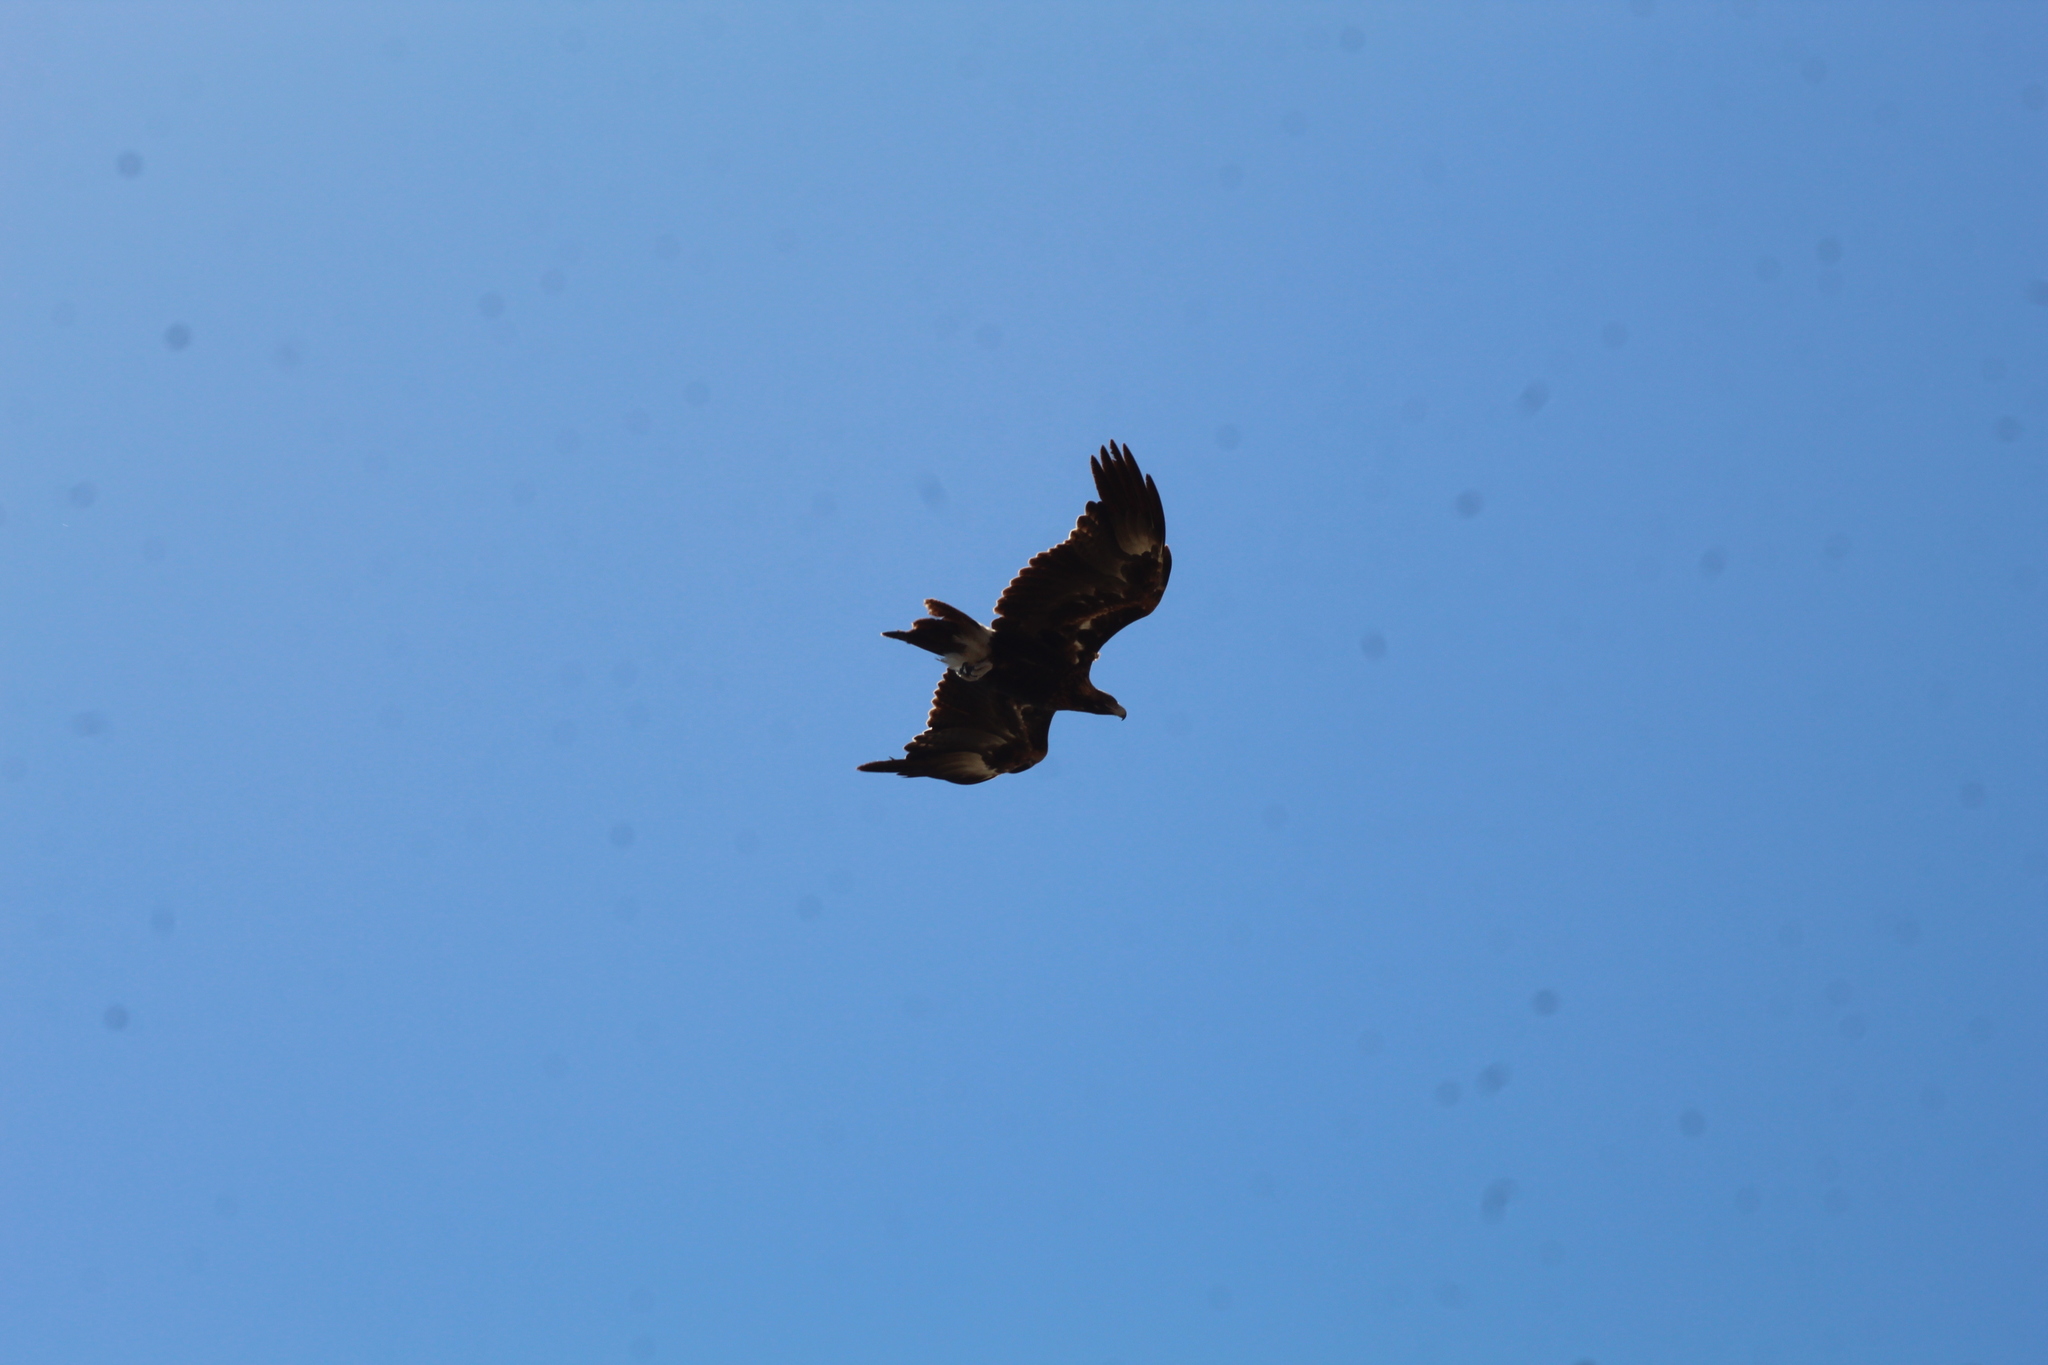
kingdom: Animalia
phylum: Chordata
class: Aves
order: Accipitriformes
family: Accipitridae
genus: Aquila
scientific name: Aquila audax
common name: Wedge-tailed eagle
